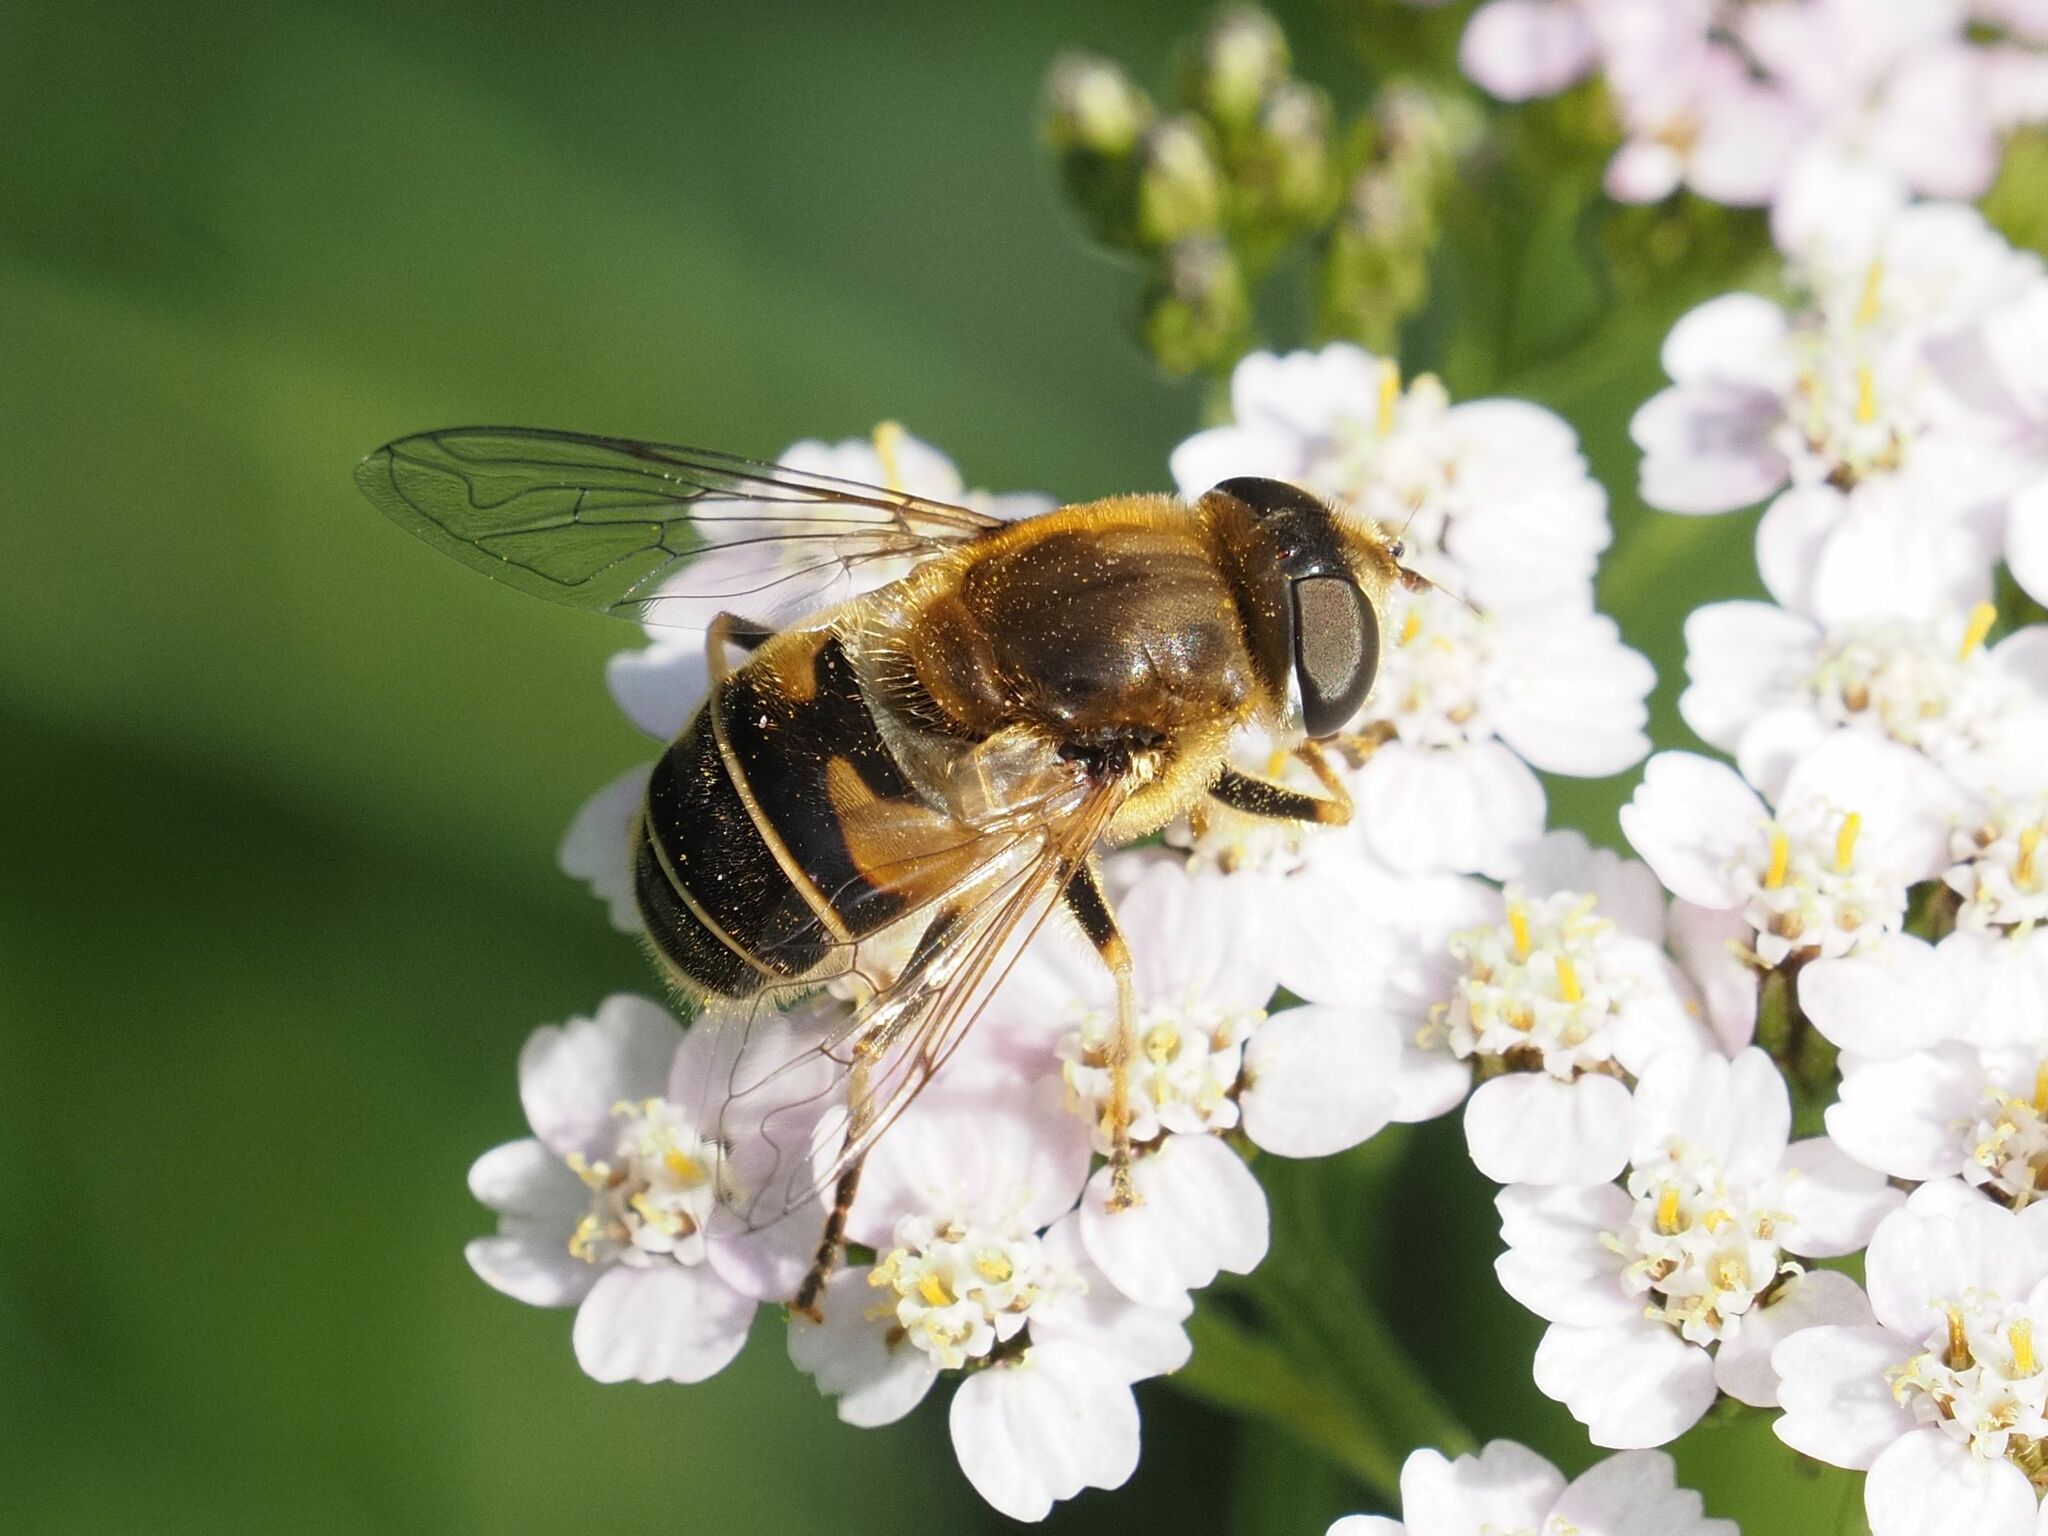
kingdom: Animalia
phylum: Arthropoda
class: Insecta
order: Diptera
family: Syrphidae
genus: Eristalis
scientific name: Eristalis nemorum
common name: Orange-spined drone fly
